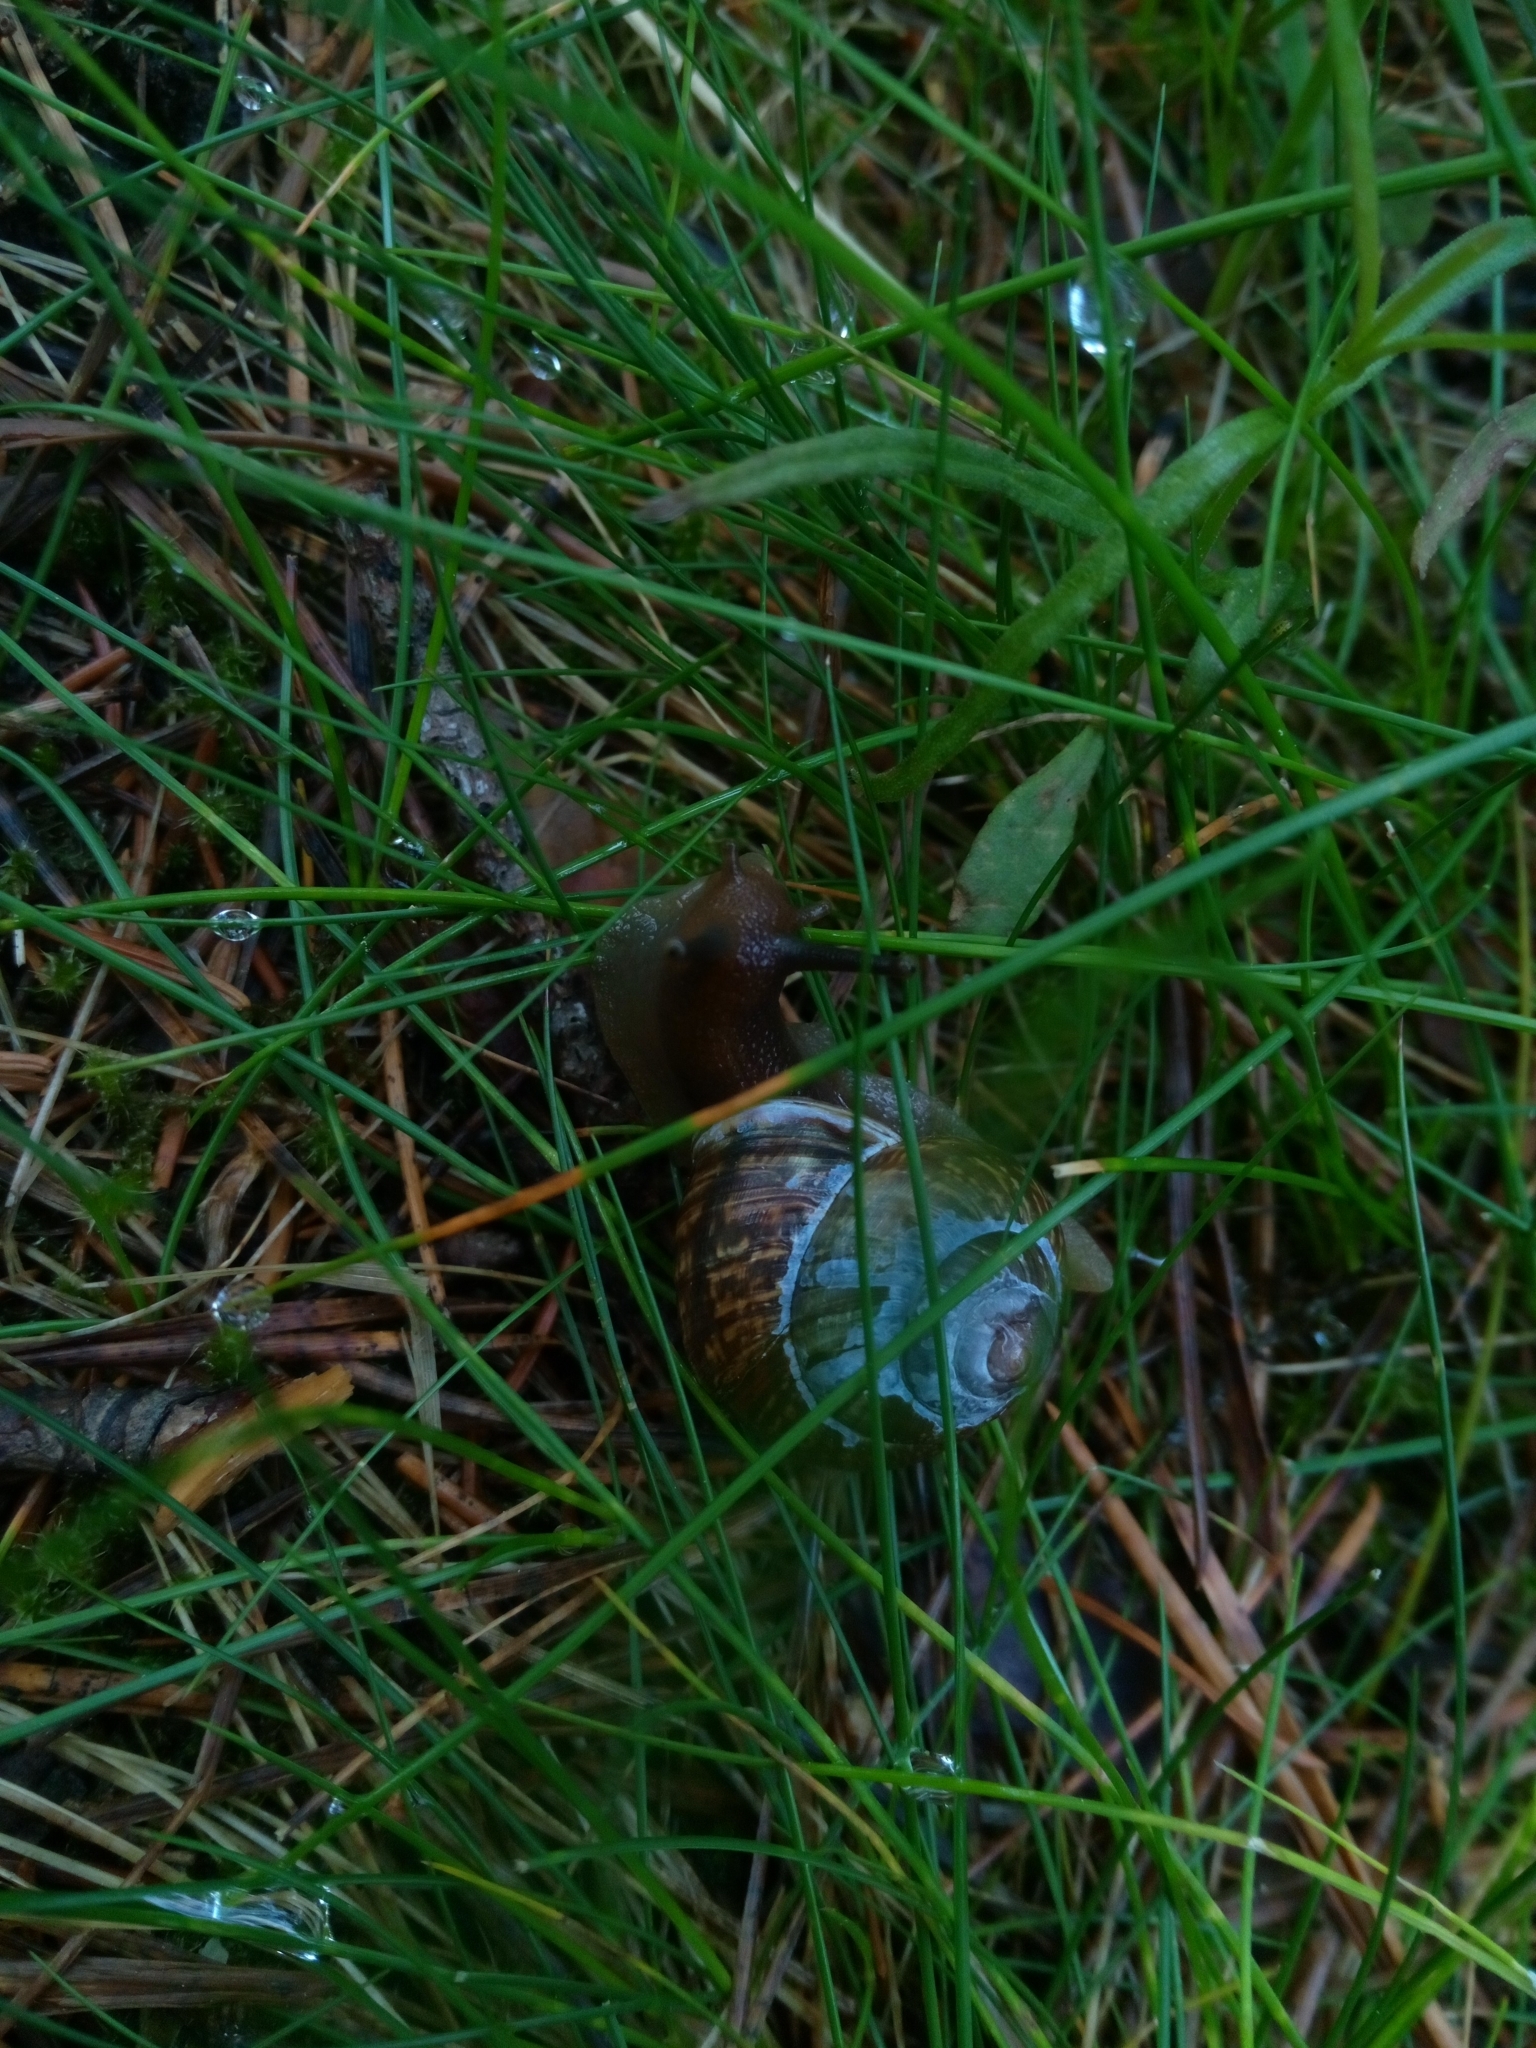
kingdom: Animalia
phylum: Mollusca
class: Gastropoda
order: Stylommatophora
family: Helicidae
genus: Arianta
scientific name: Arianta arbustorum
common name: Copse snail
